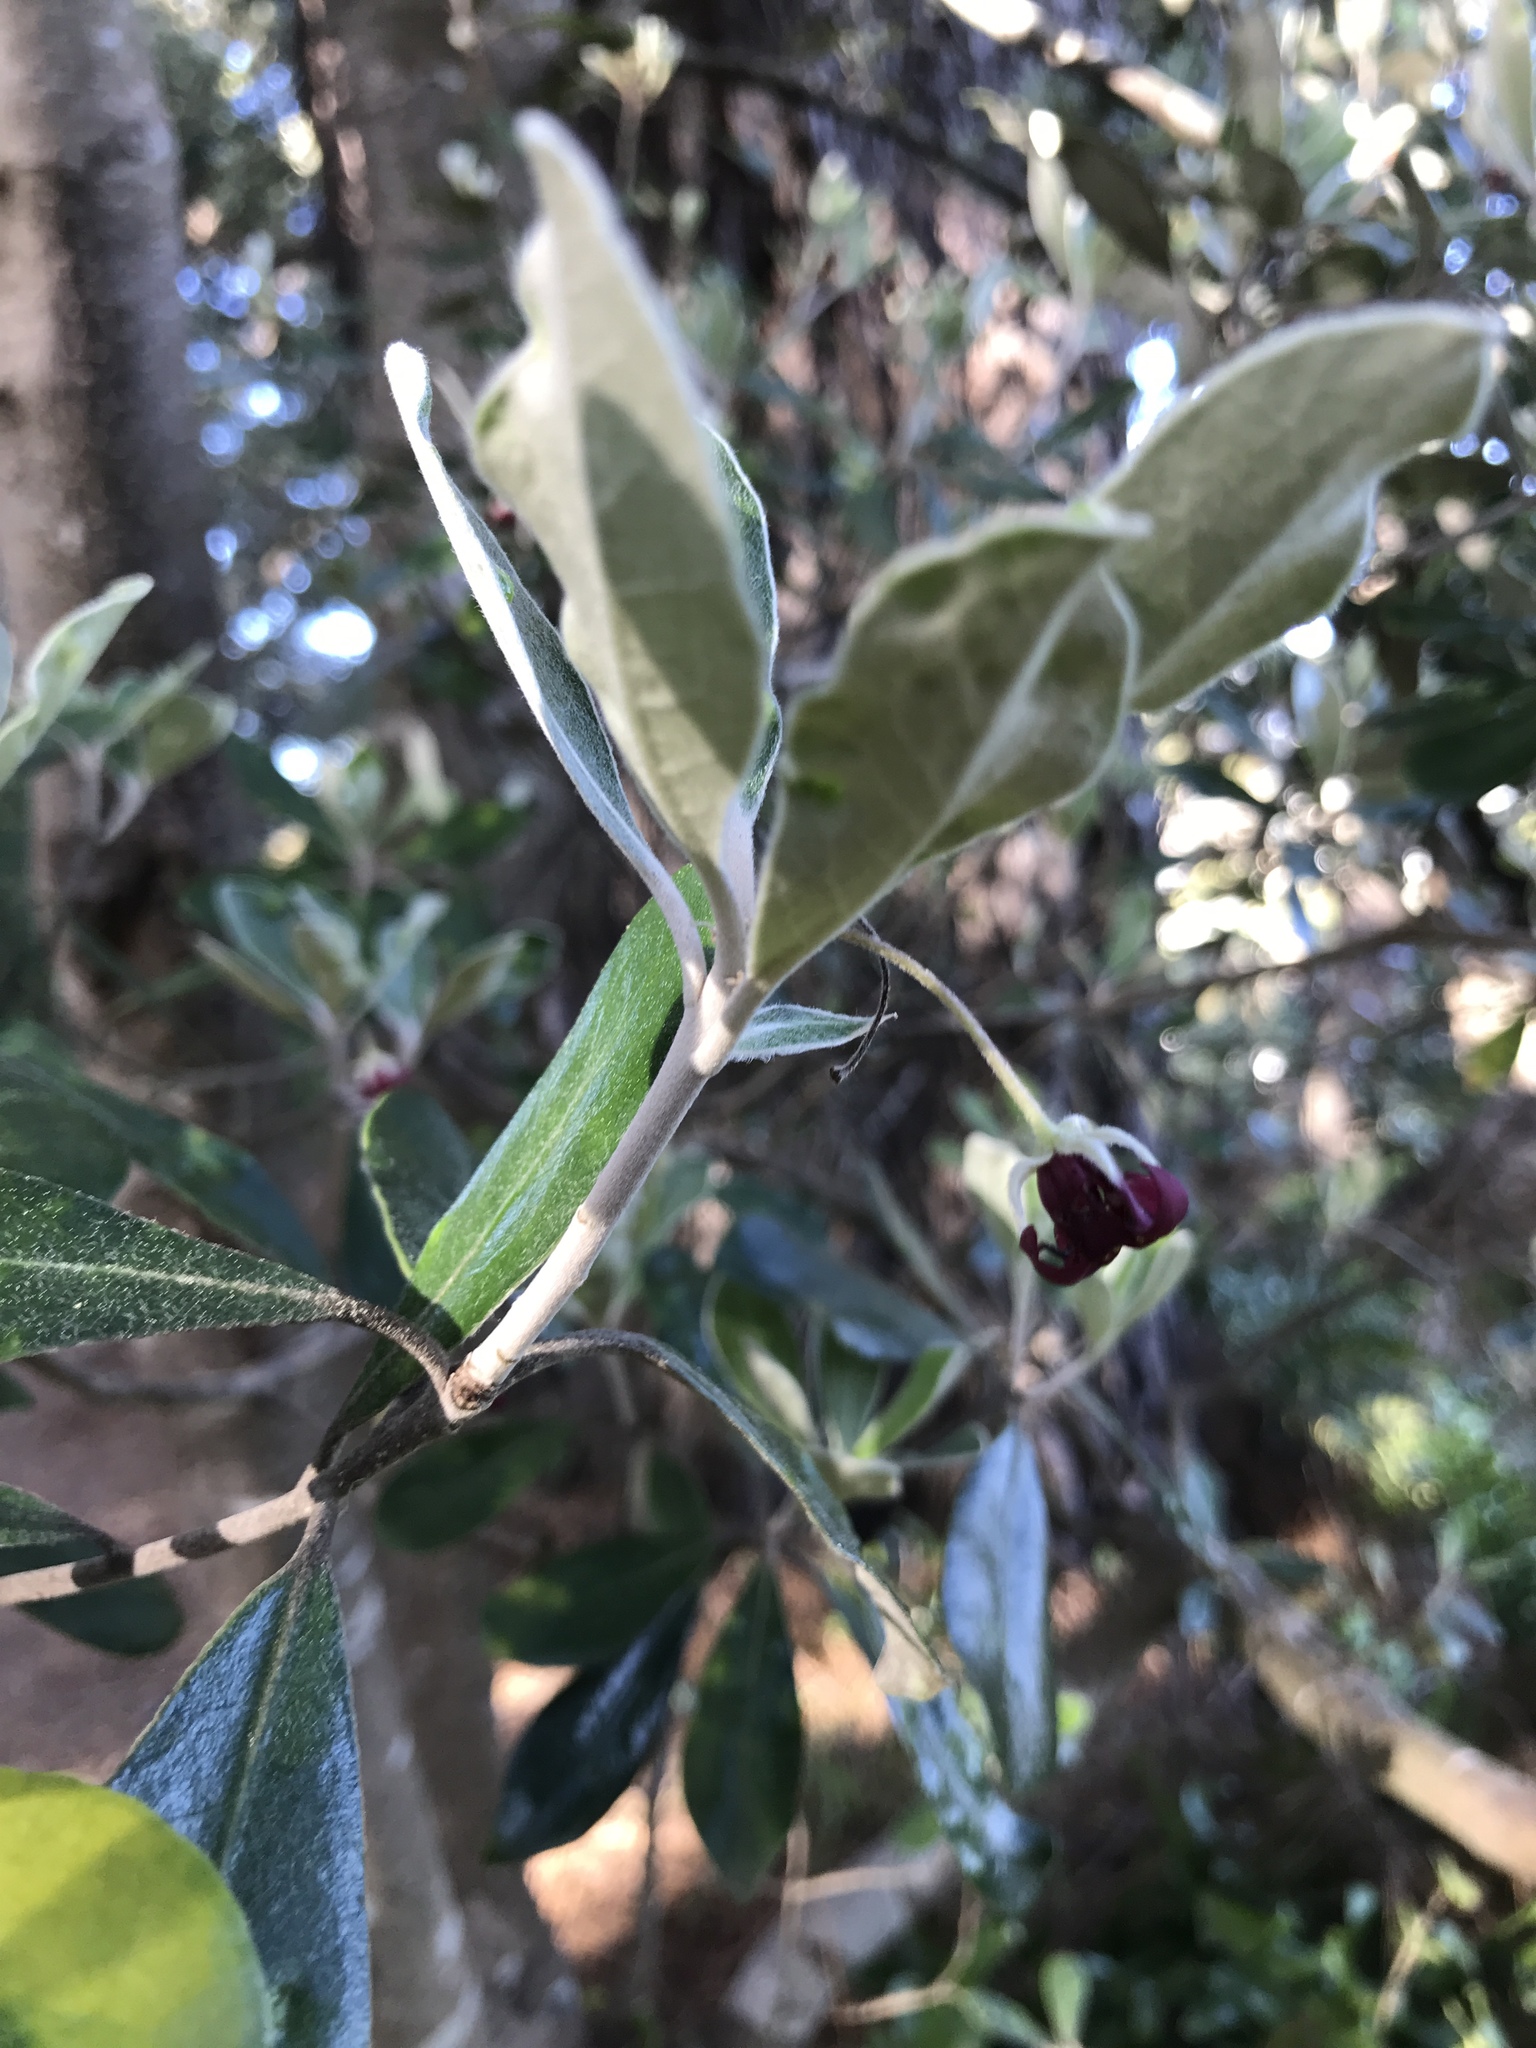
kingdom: Plantae
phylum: Tracheophyta
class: Magnoliopsida
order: Apiales
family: Pittosporaceae
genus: Pittosporum
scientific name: Pittosporum crassifolium
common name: Karo
